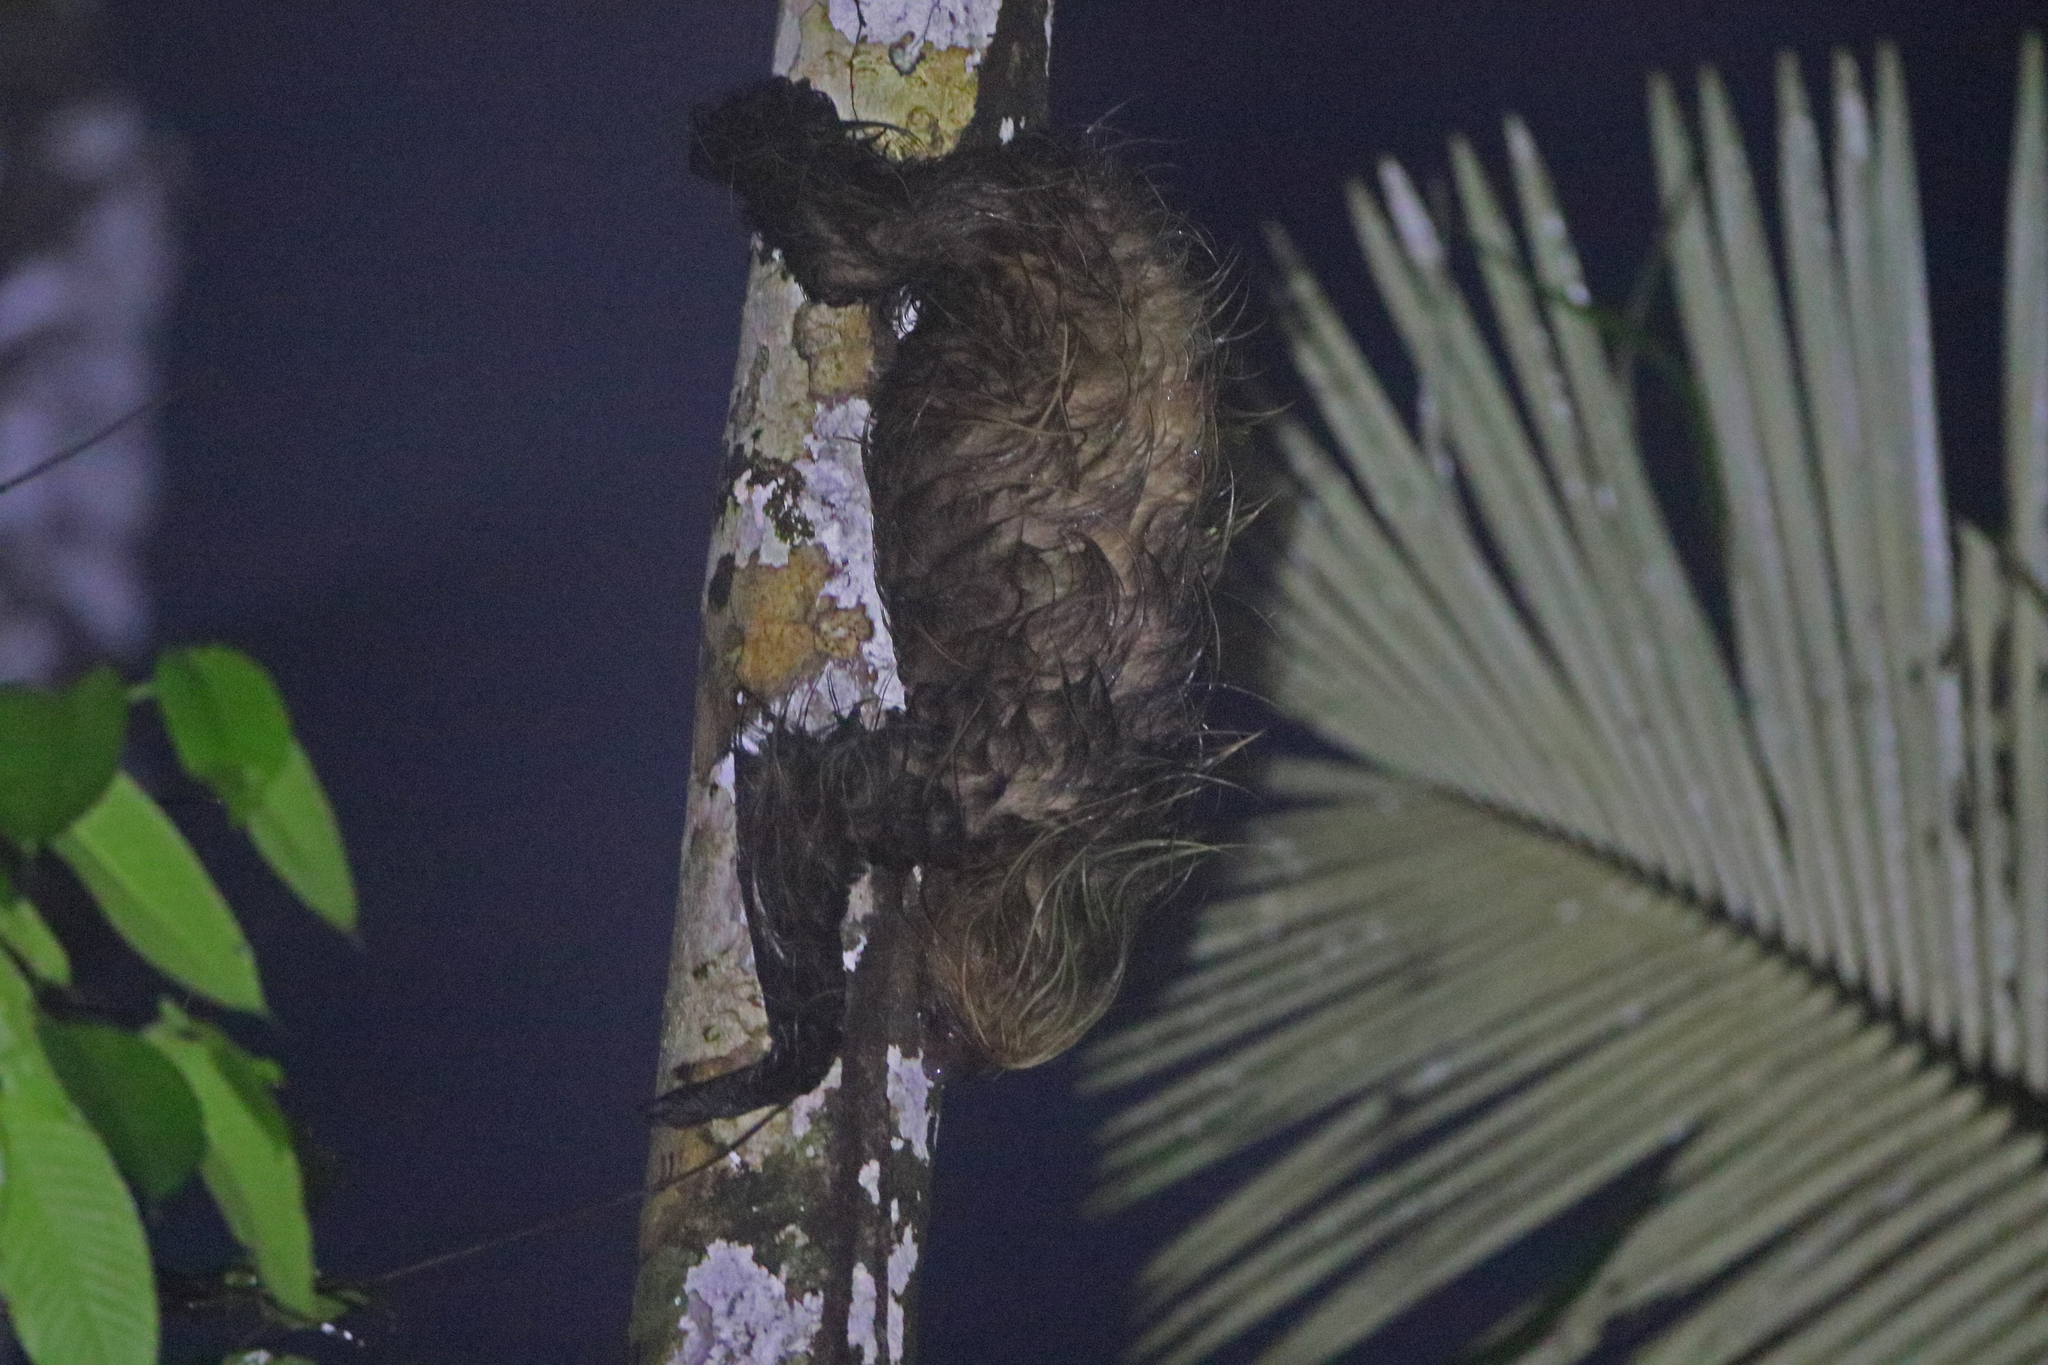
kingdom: Animalia
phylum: Chordata
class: Mammalia
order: Pilosa
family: Megalonychidae
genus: Choloepus
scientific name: Choloepus didactylus
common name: Southern two-toed sloth
